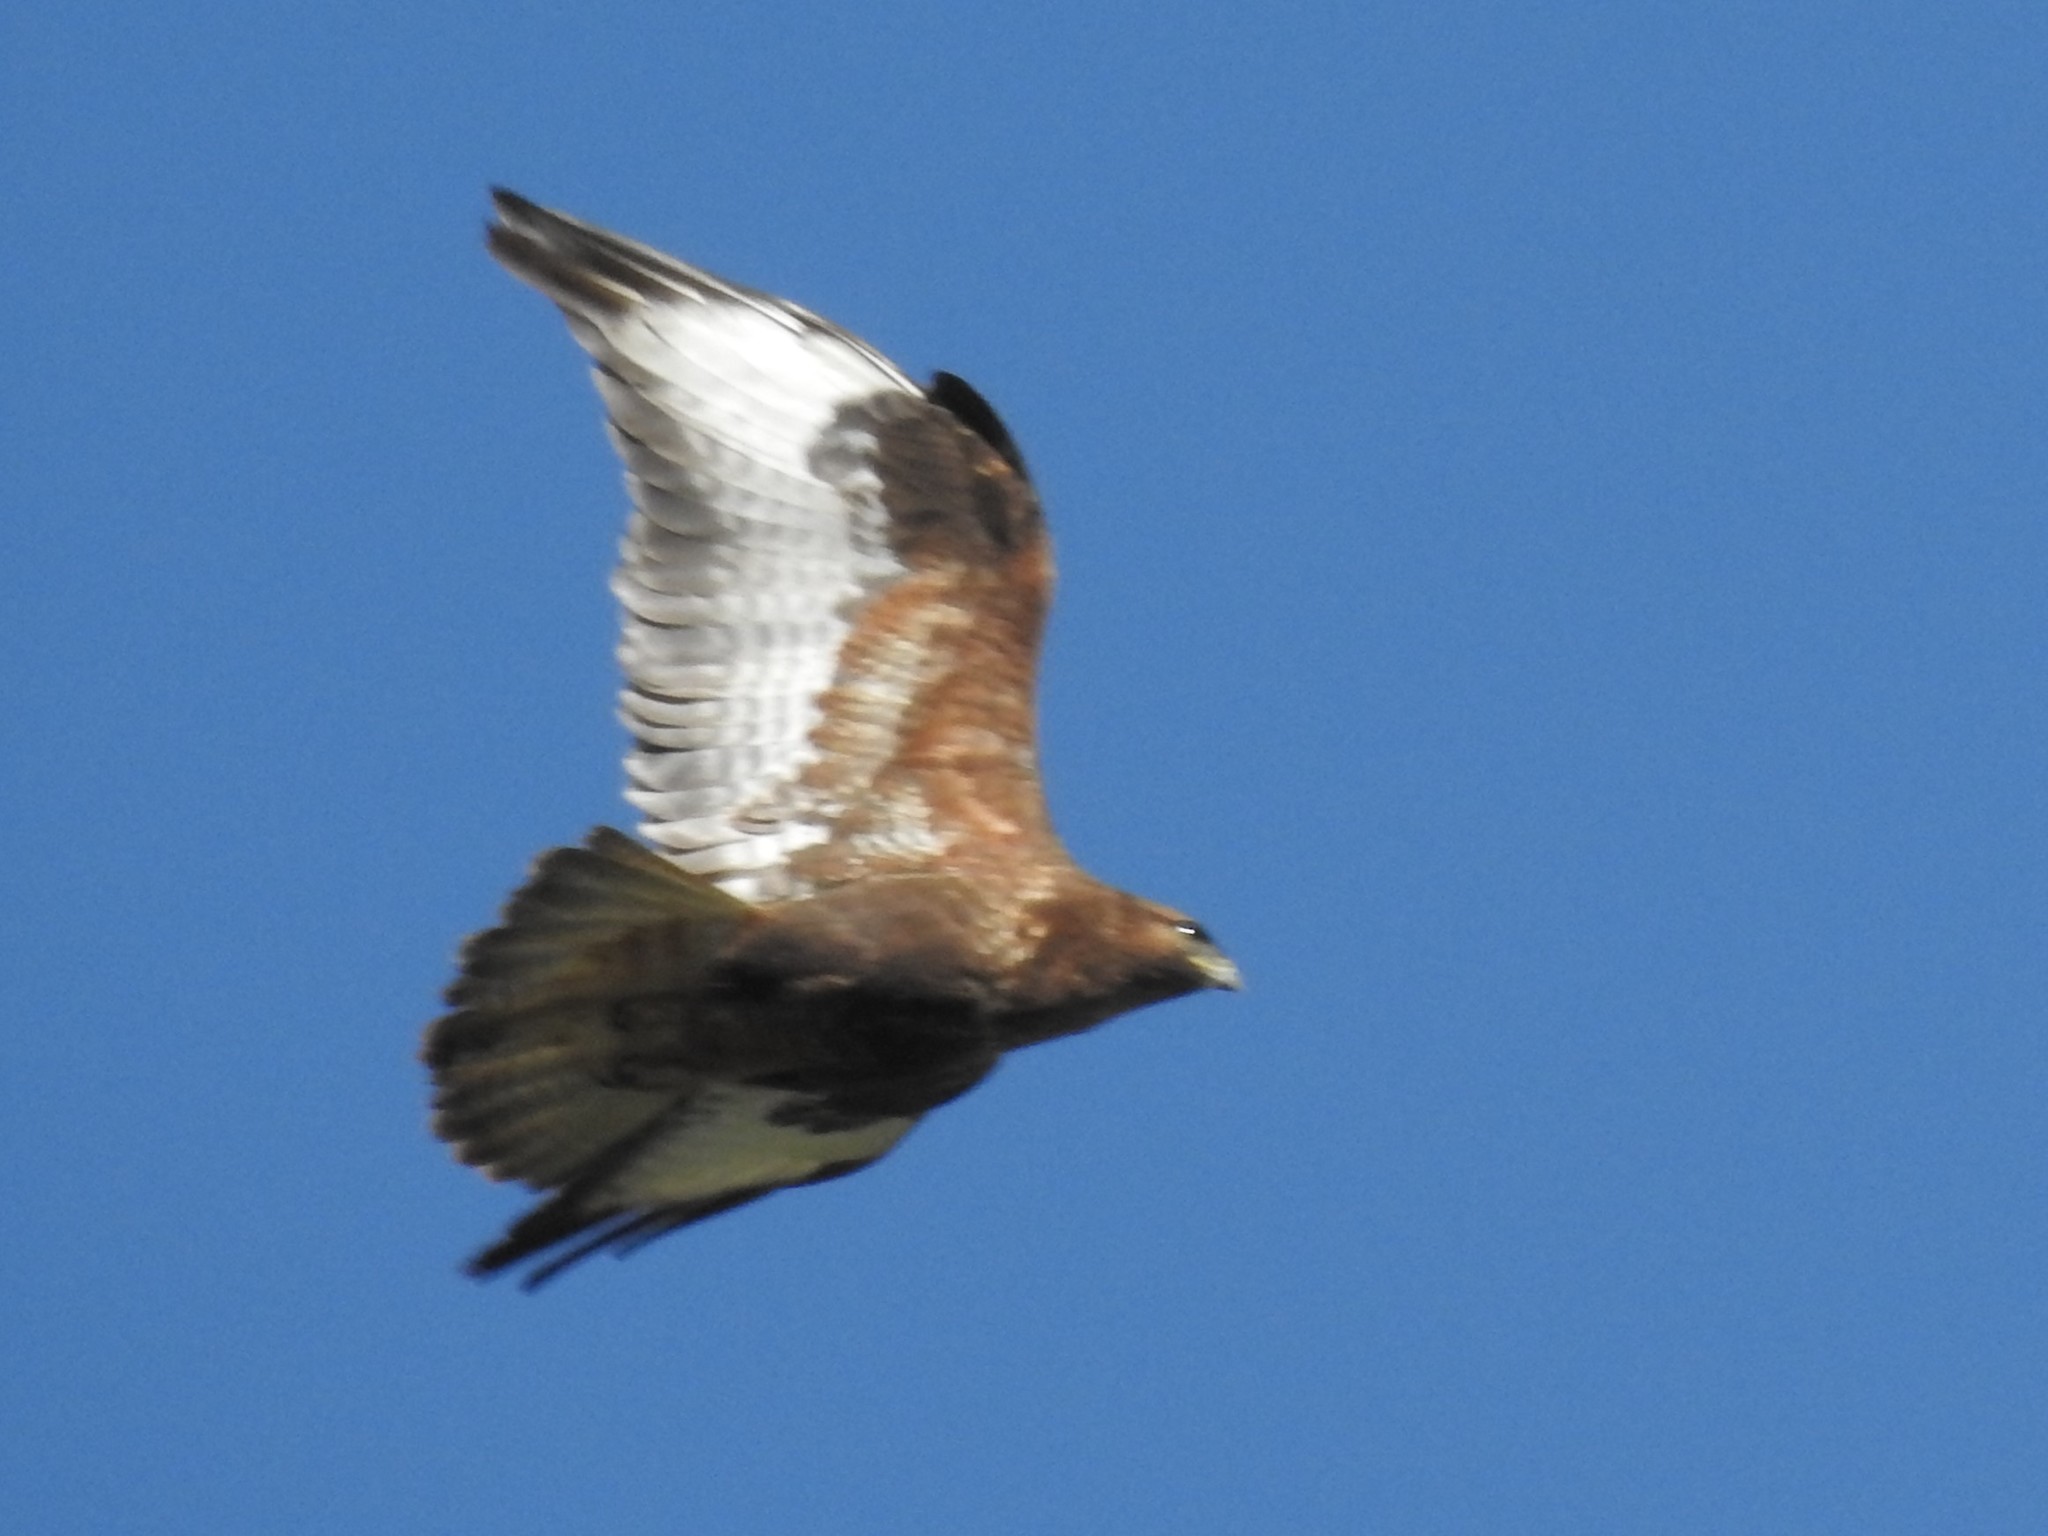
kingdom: Animalia
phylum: Chordata
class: Aves
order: Accipitriformes
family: Accipitridae
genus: Buteo
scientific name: Buteo buteo
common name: Common buzzard
